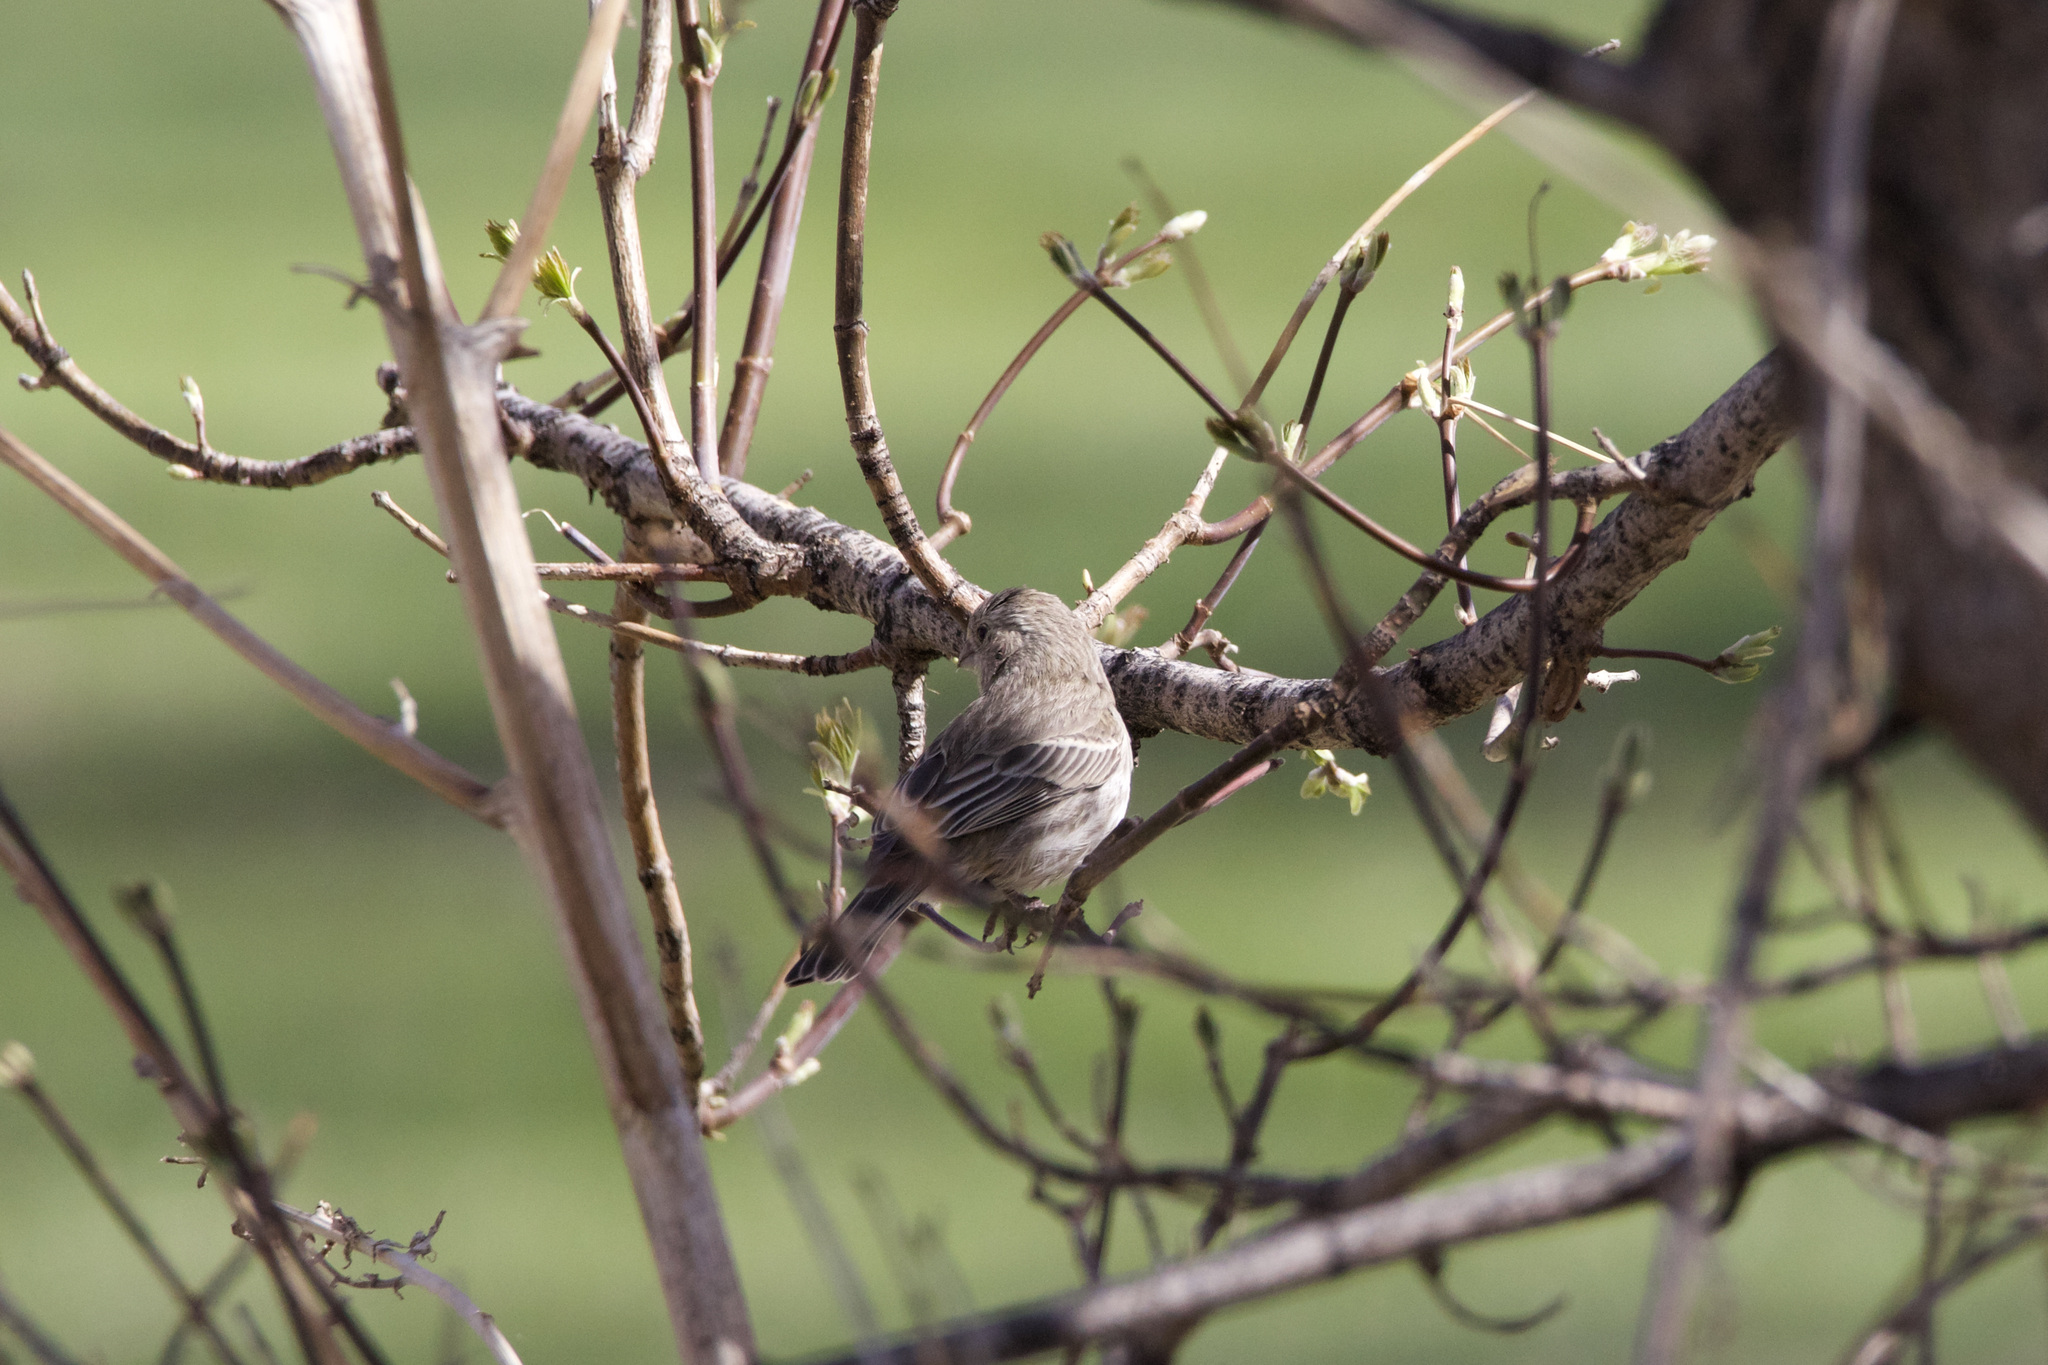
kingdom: Animalia
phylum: Chordata
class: Aves
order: Passeriformes
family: Fringillidae
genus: Haemorhous
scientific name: Haemorhous mexicanus
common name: House finch
